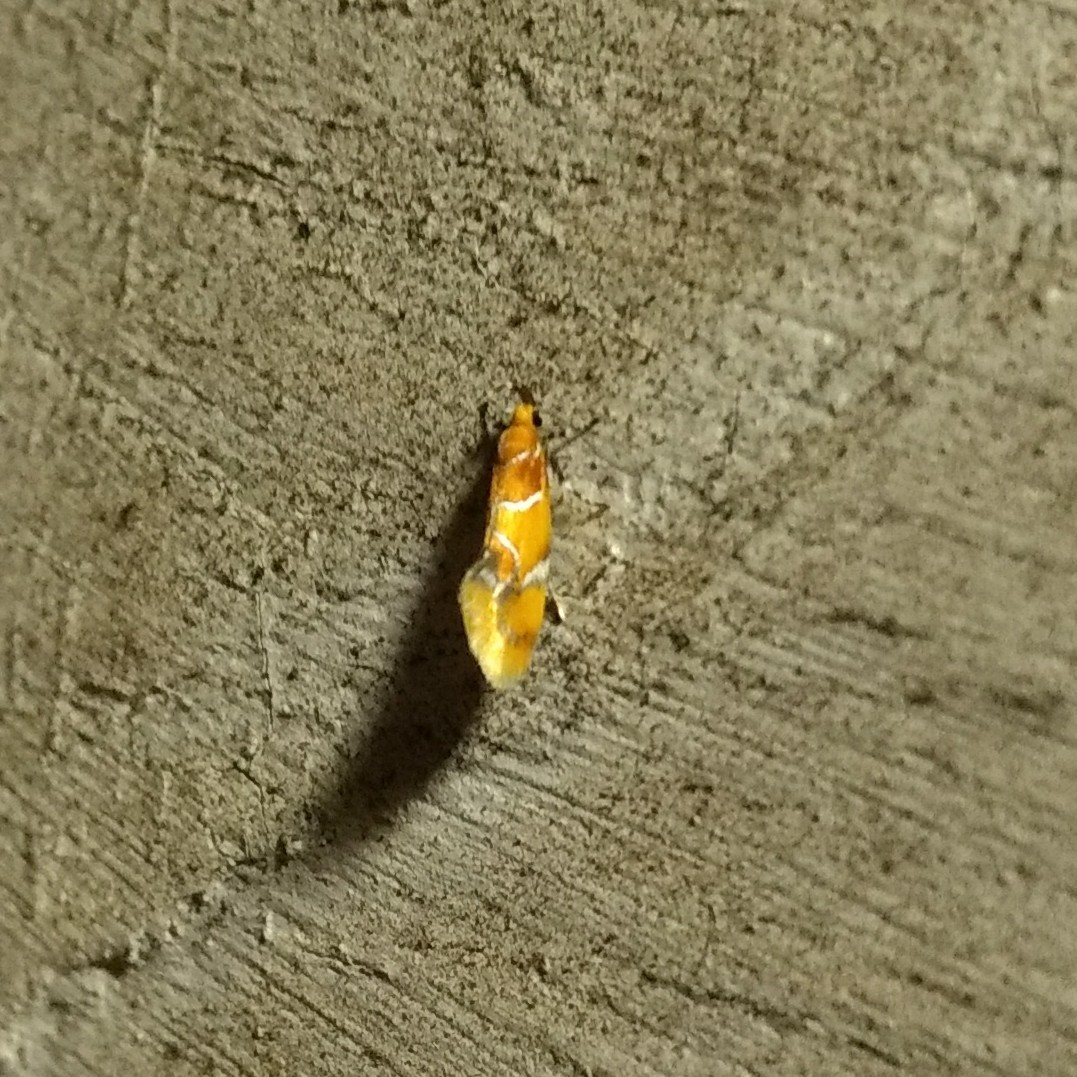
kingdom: Animalia
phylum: Arthropoda
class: Insecta
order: Lepidoptera
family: Oecophoridae
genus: Callima
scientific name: Callima argenticinctella
